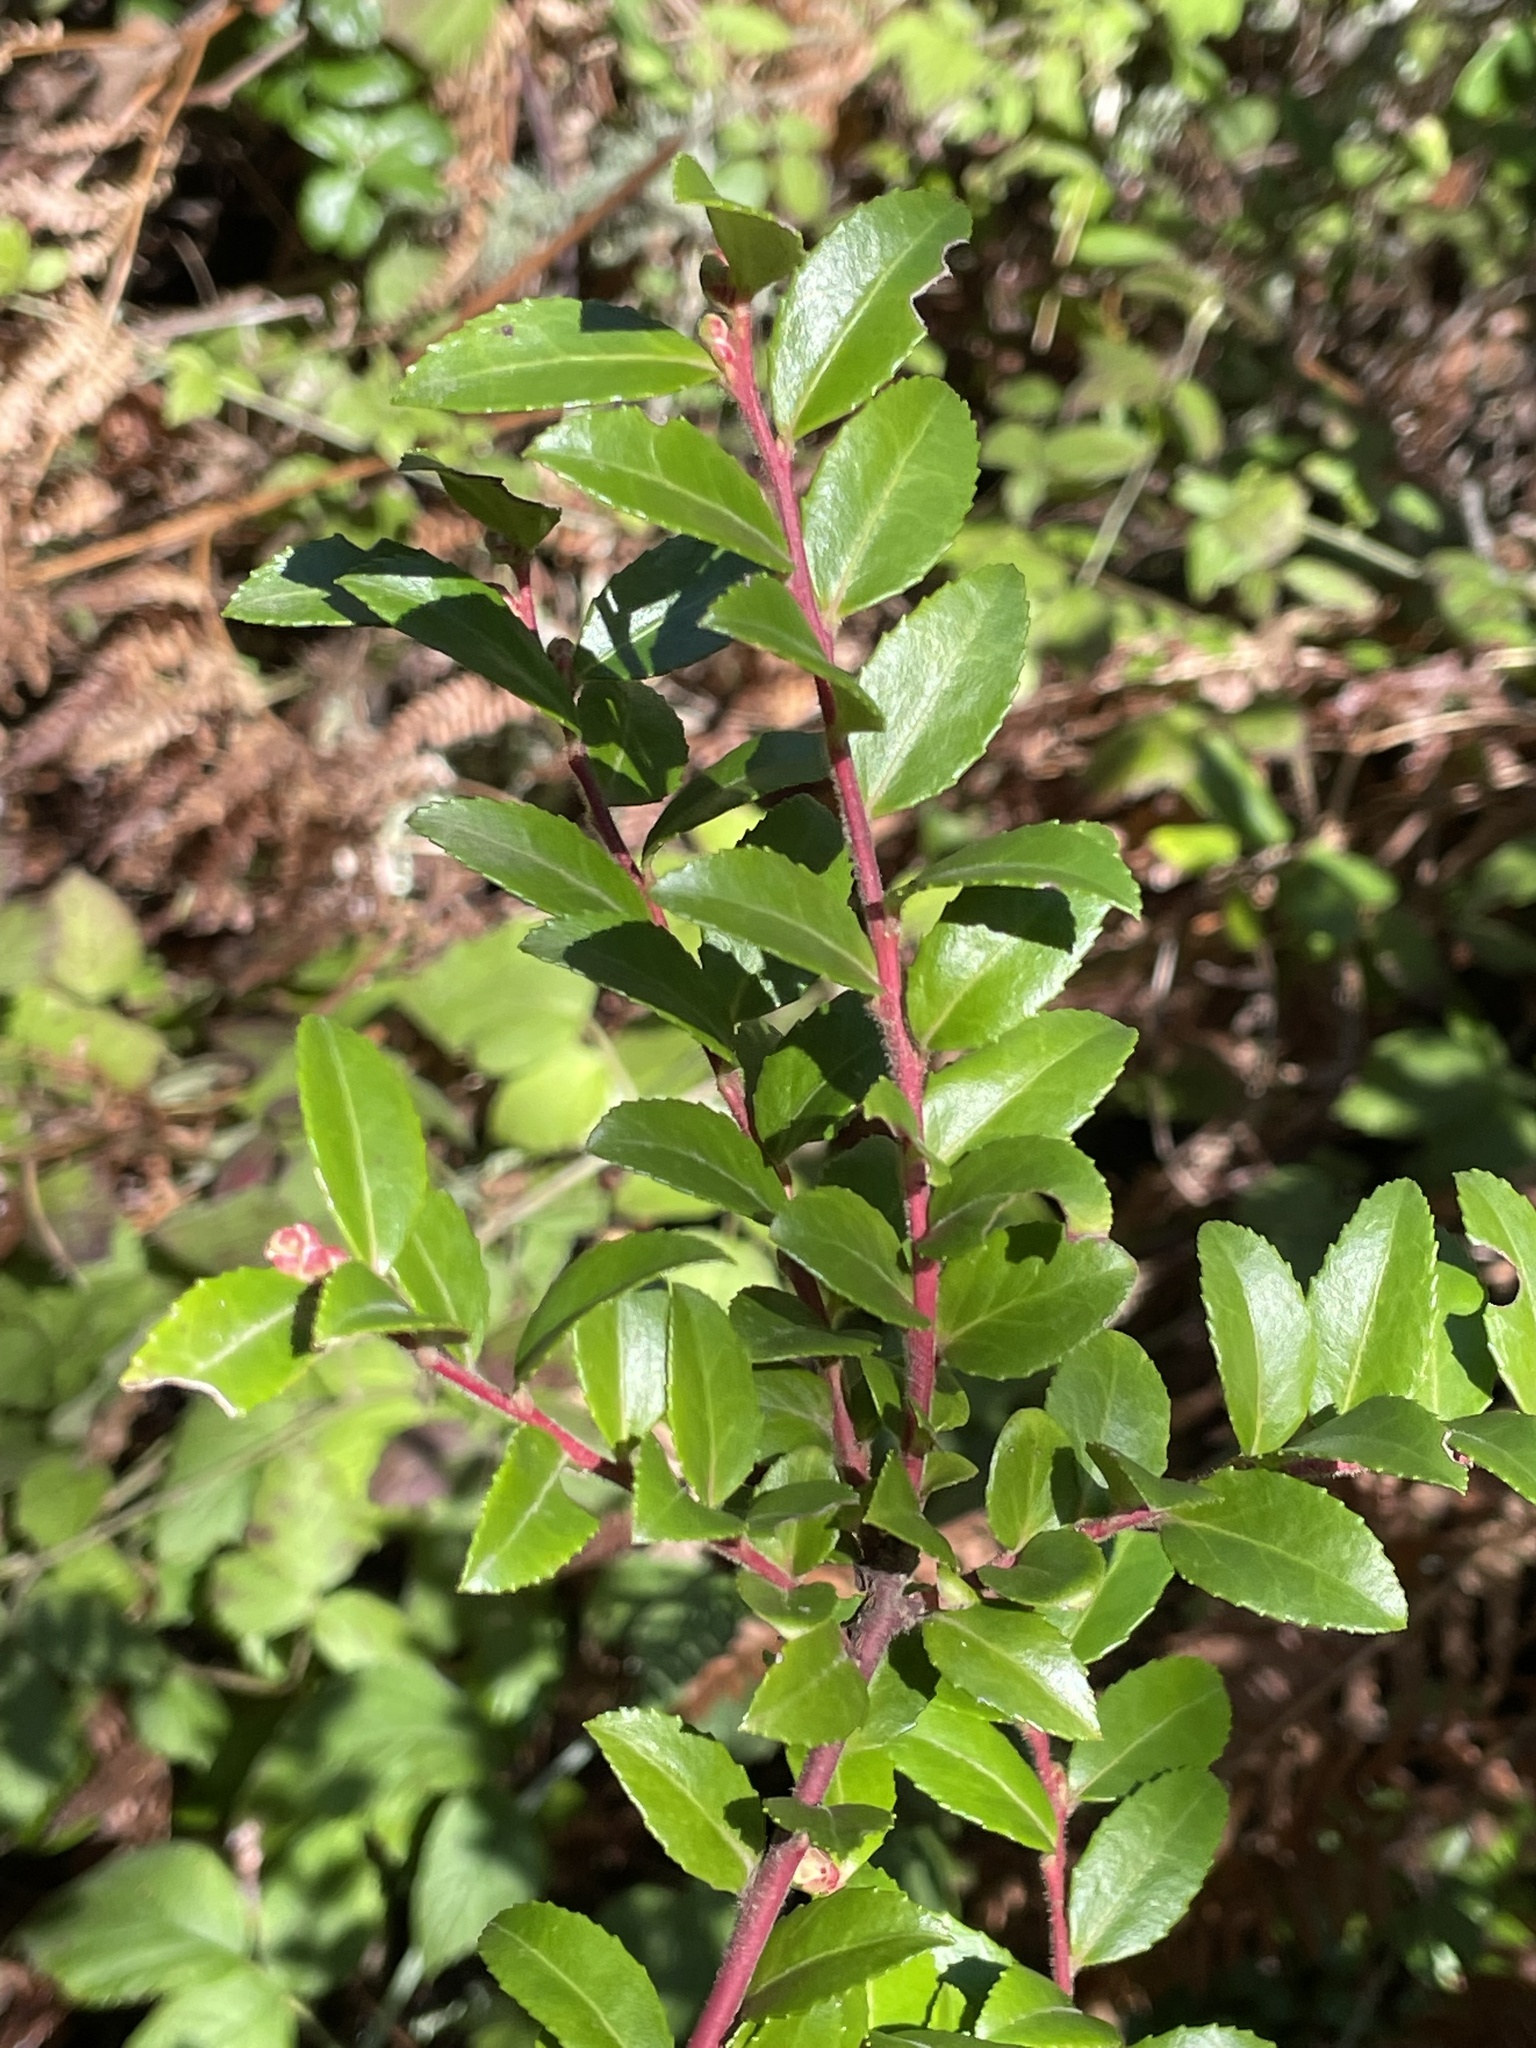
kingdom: Plantae
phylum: Tracheophyta
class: Magnoliopsida
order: Ericales
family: Ericaceae
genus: Vaccinium
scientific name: Vaccinium ovatum
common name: California-huckleberry
